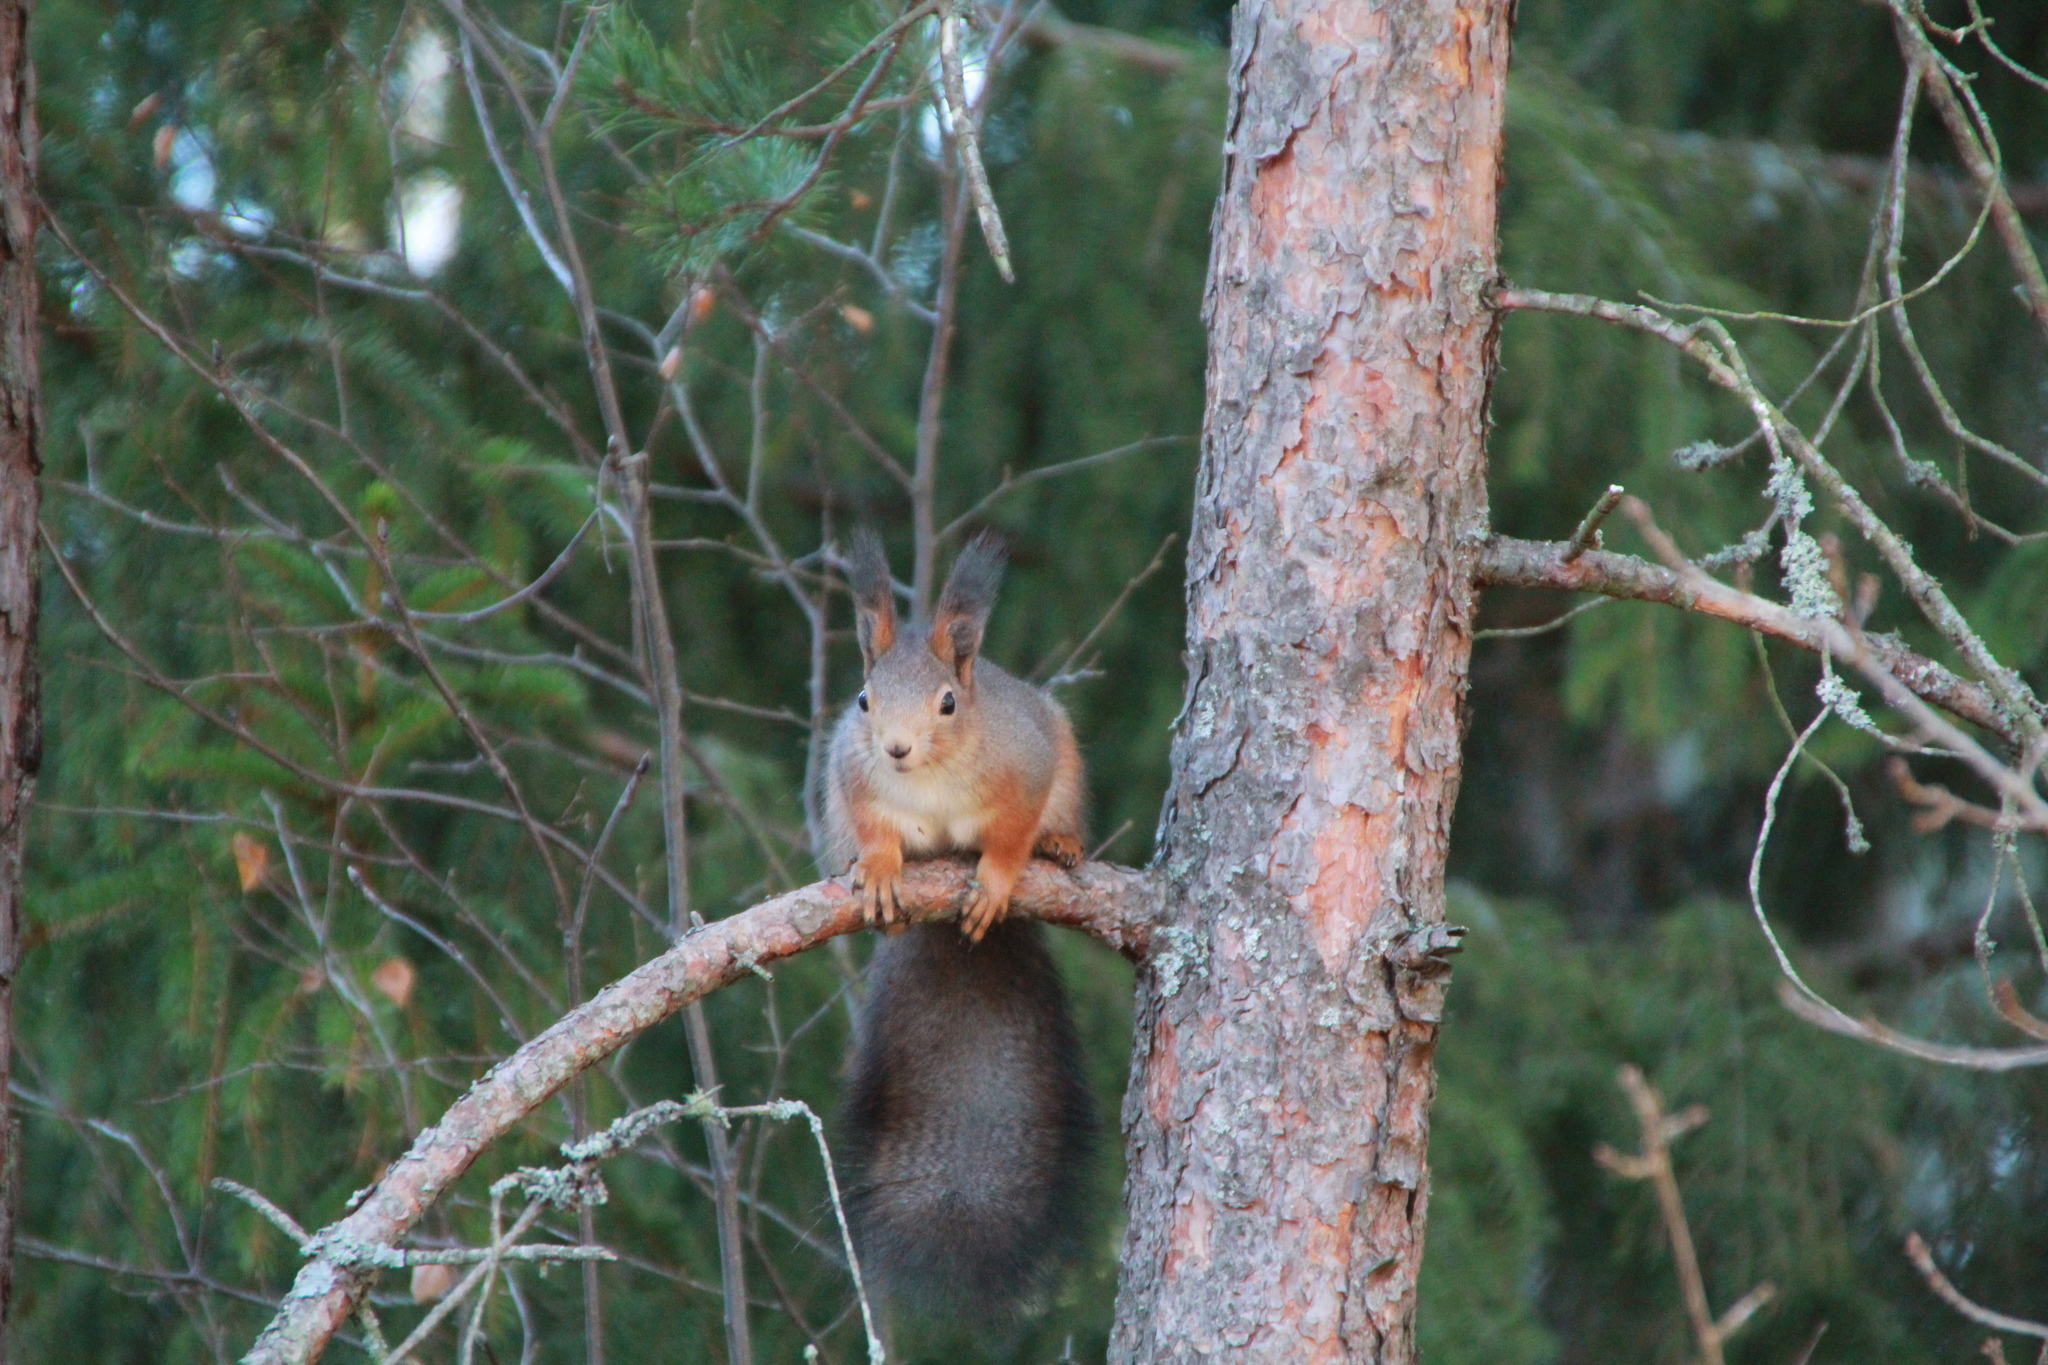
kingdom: Animalia
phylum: Chordata
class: Mammalia
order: Rodentia
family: Sciuridae
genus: Sciurus
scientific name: Sciurus vulgaris
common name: Eurasian red squirrel
